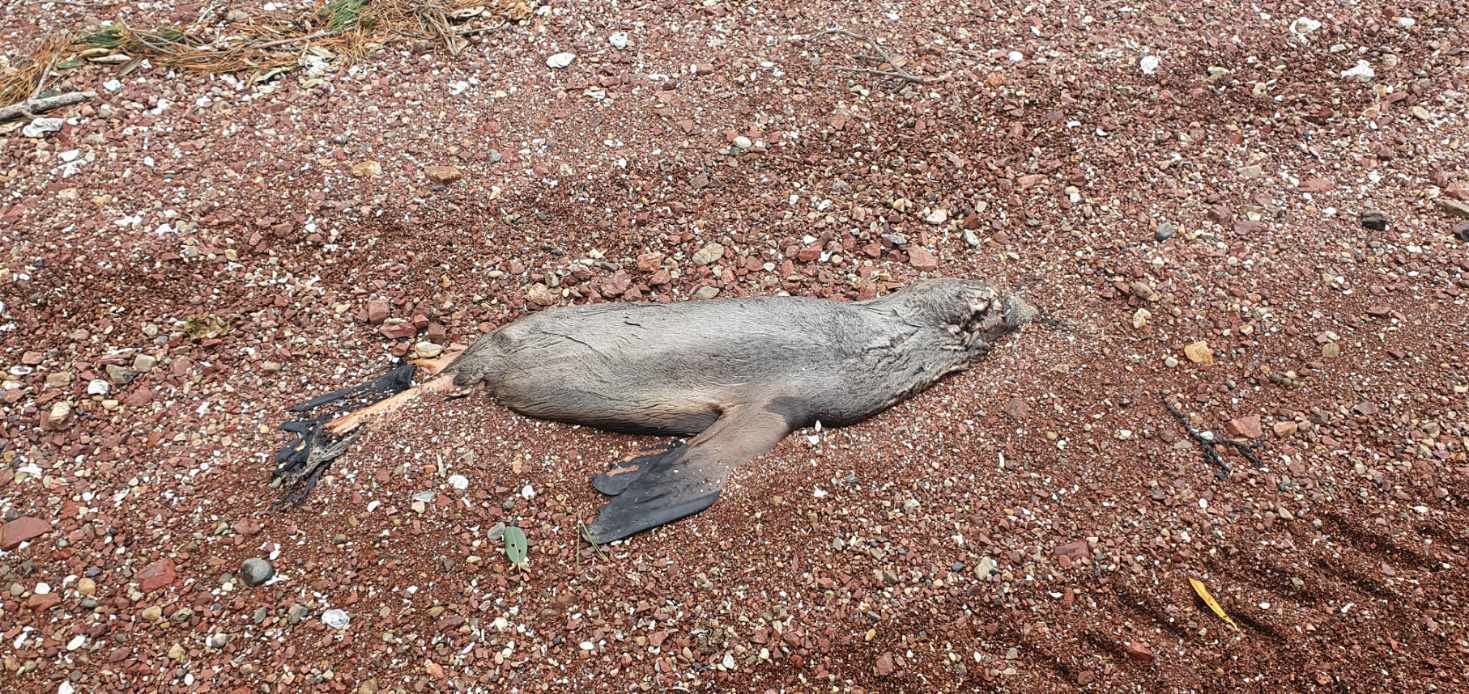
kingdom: Animalia
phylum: Chordata
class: Mammalia
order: Carnivora
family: Otariidae
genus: Arctocephalus
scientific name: Arctocephalus forsteri
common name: New zealand fur seal
